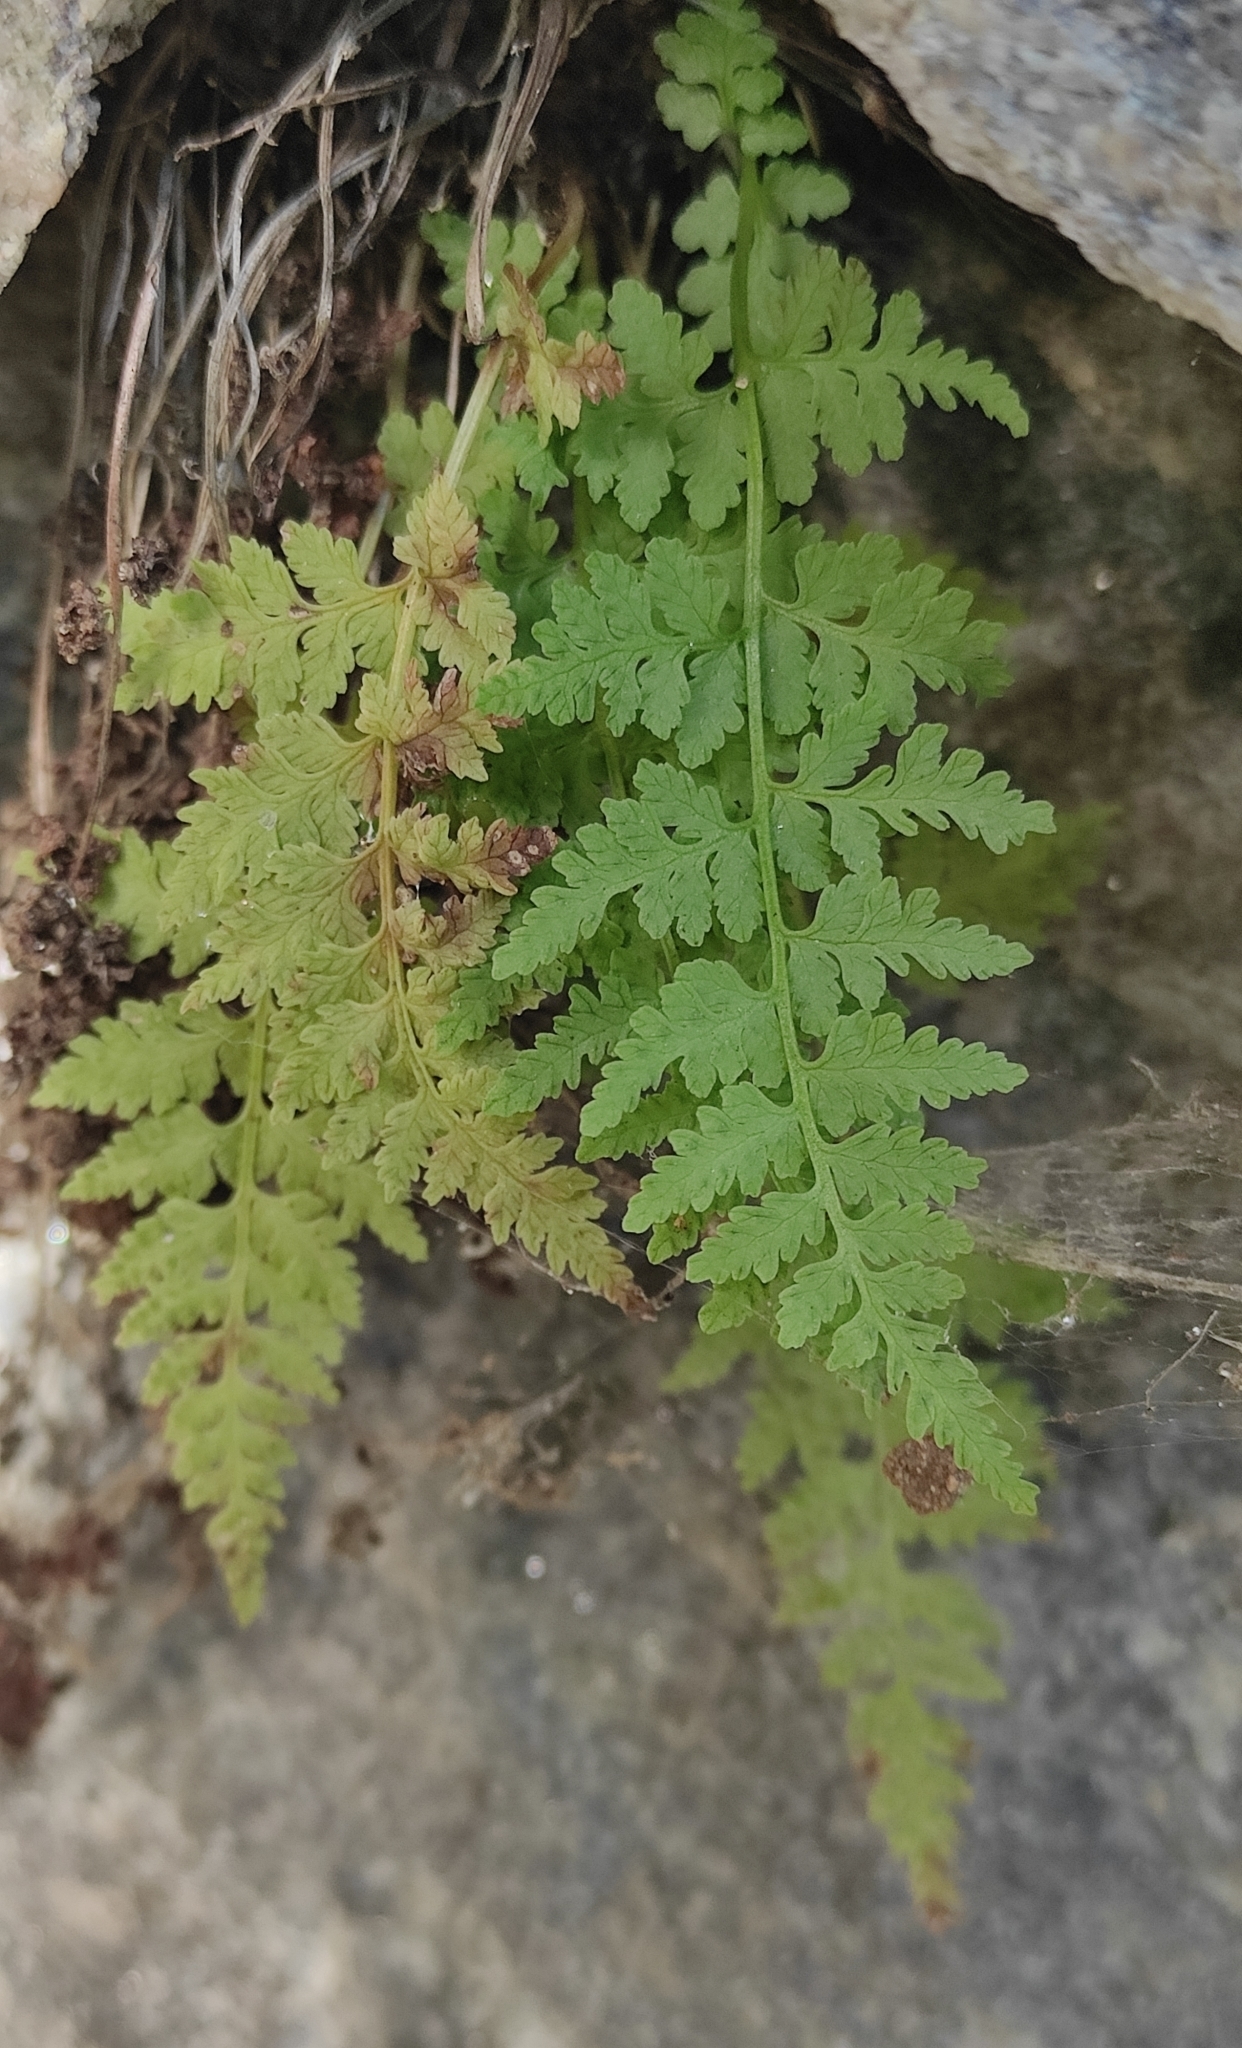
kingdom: Plantae
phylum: Tracheophyta
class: Polypodiopsida
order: Polypodiales
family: Cystopteridaceae
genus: Cystopteris
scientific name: Cystopteris fragilis
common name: Brittle bladder fern
